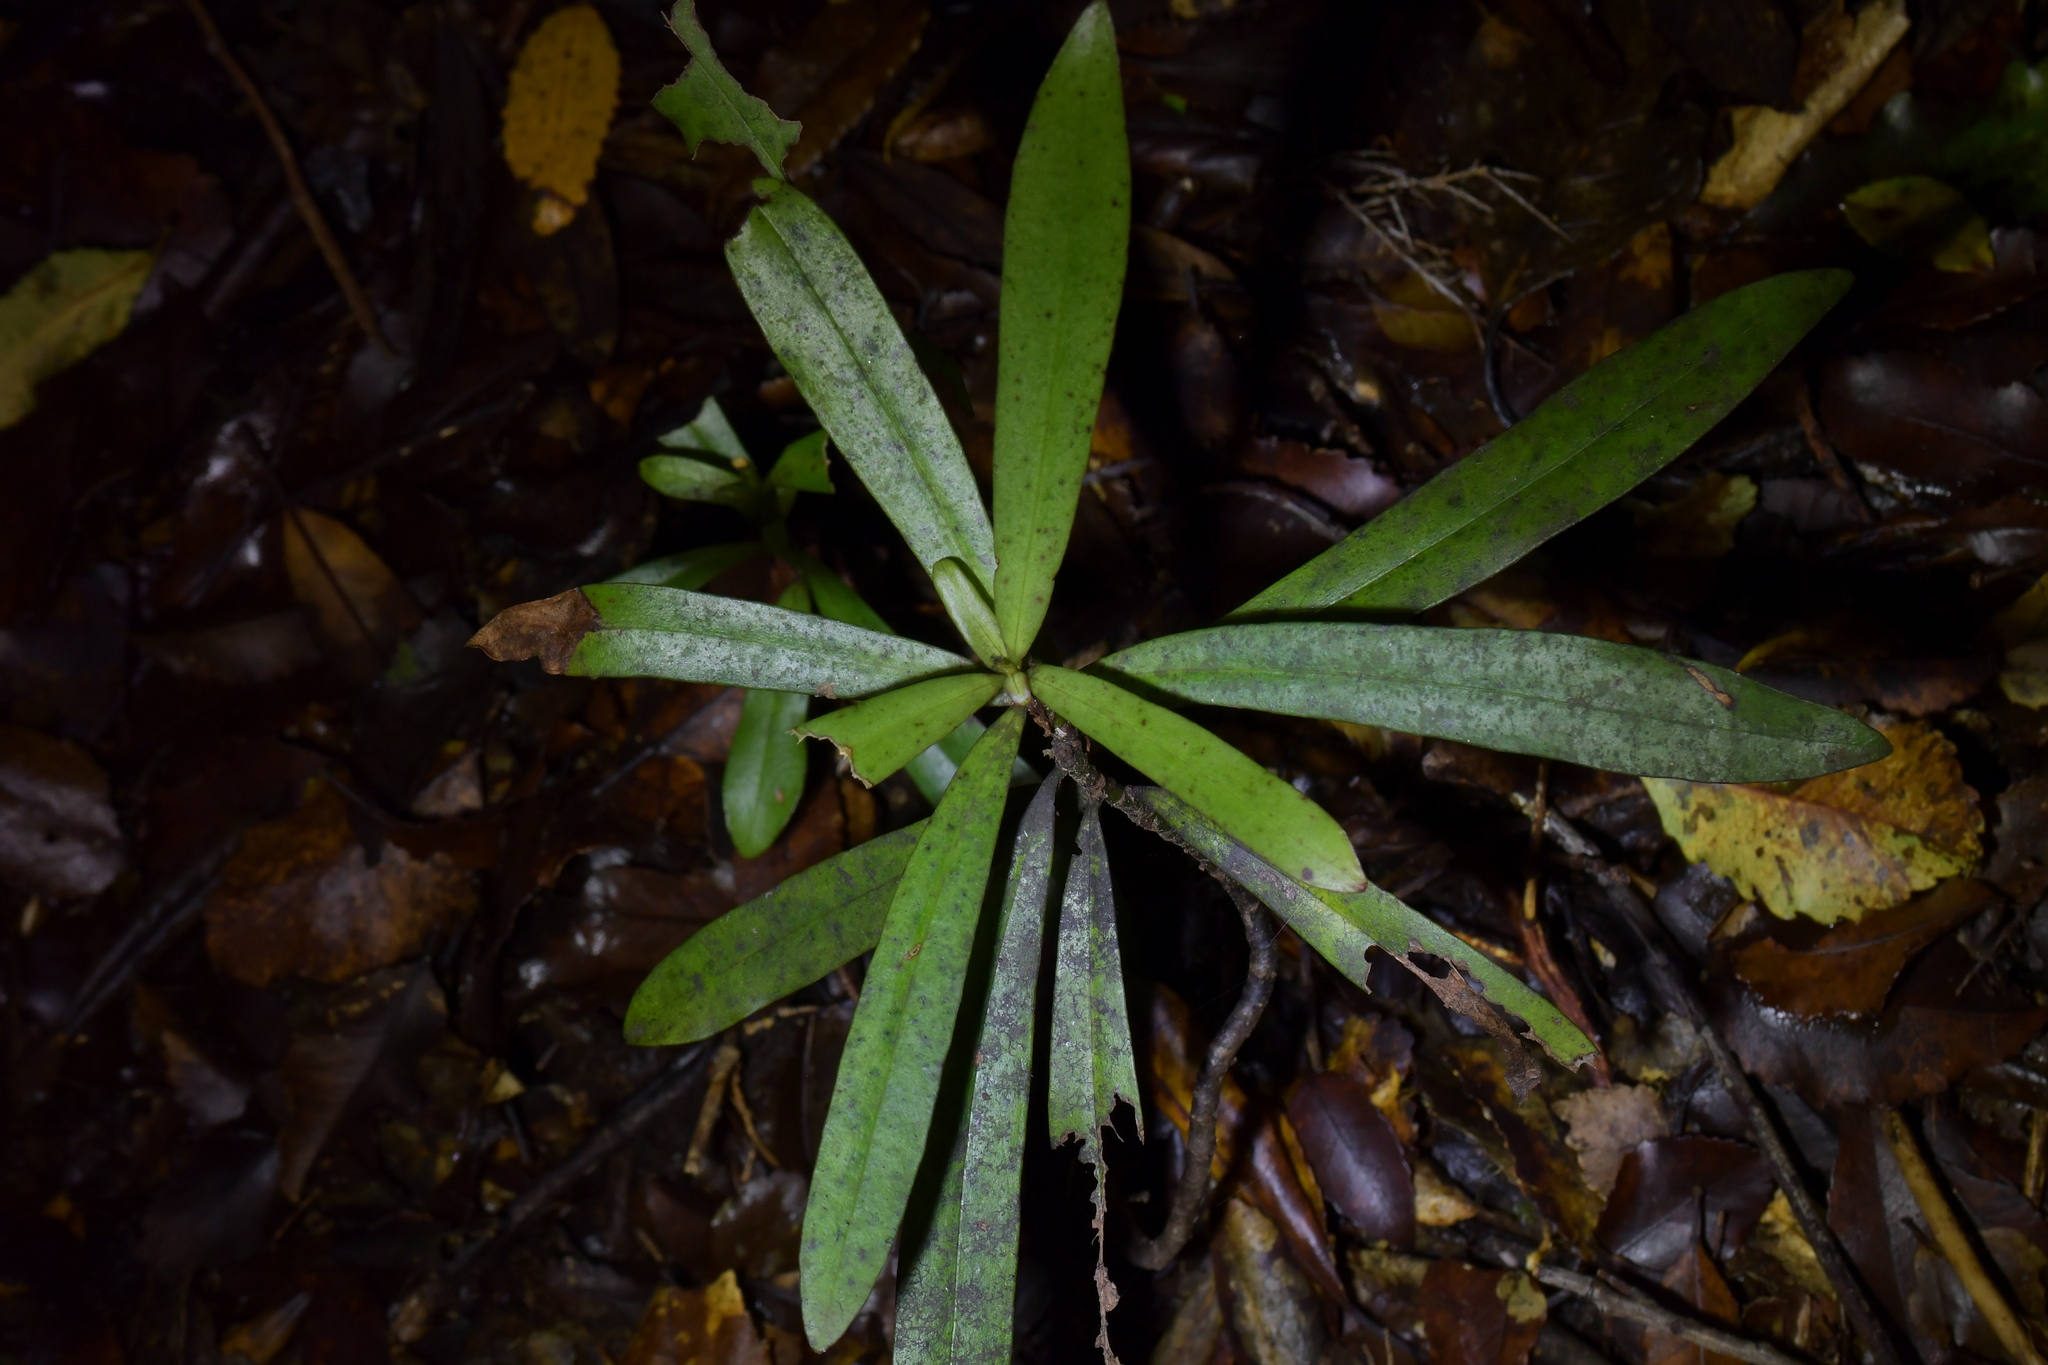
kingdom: Plantae
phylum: Tracheophyta
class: Magnoliopsida
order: Ericales
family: Primulaceae
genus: Myrsine
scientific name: Myrsine salicina
